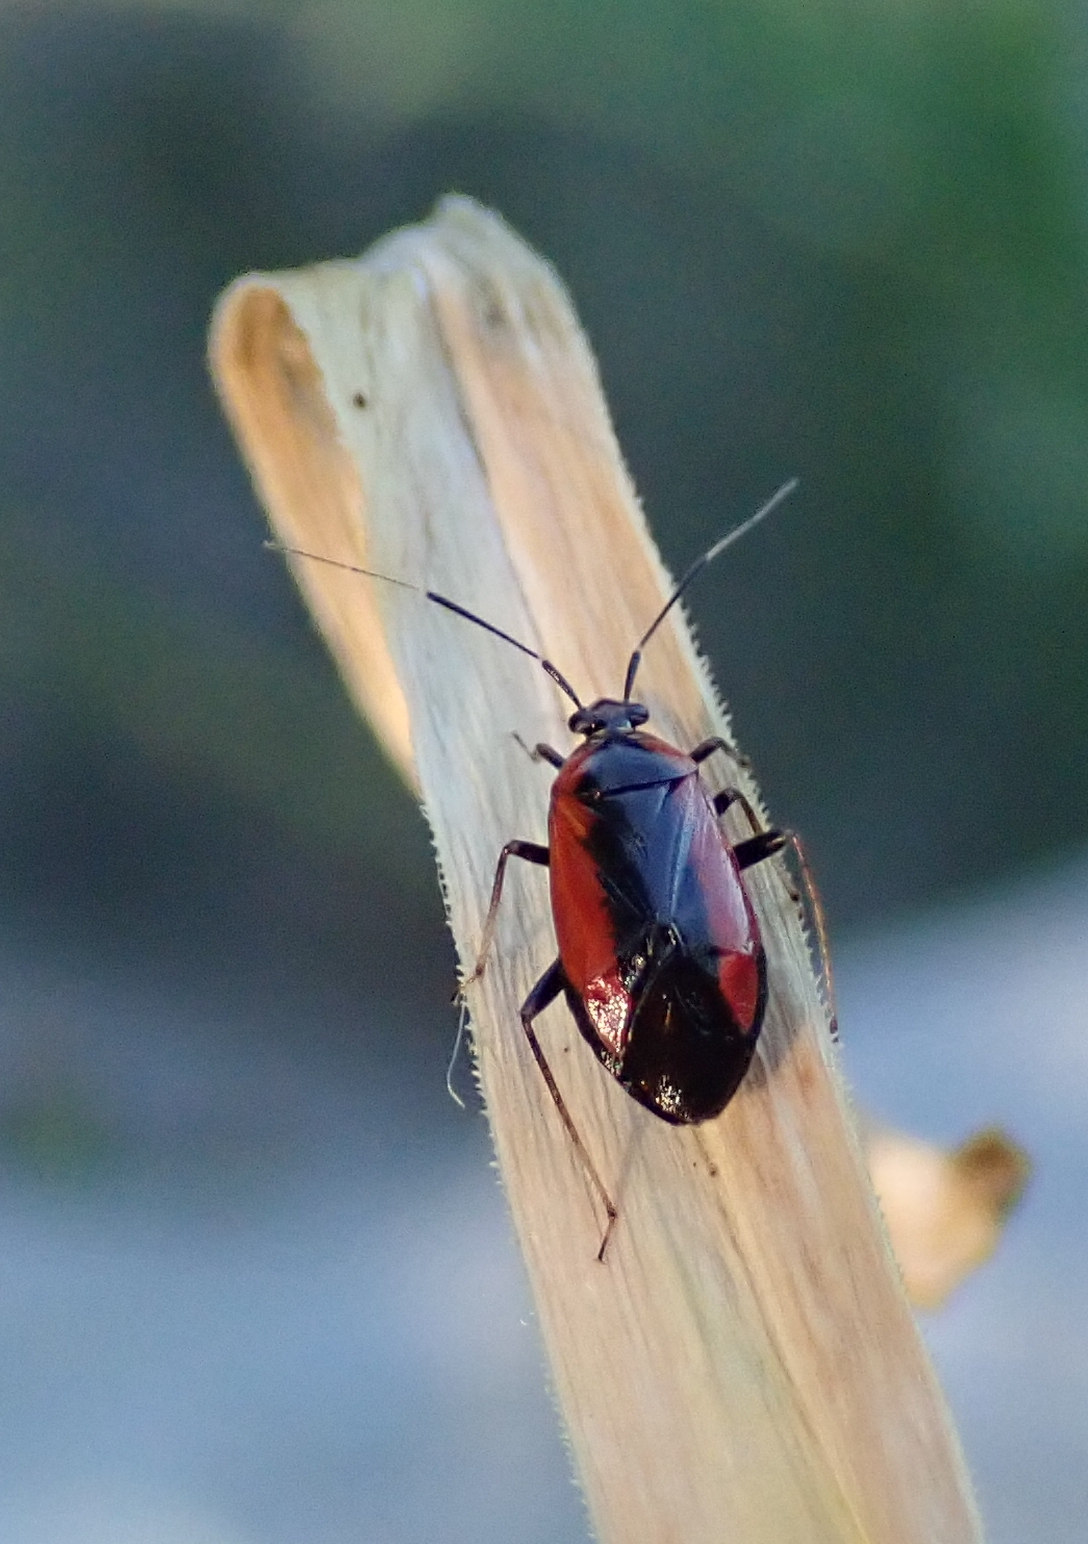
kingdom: Animalia
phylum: Arthropoda
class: Insecta
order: Hemiptera
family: Miridae
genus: Metriorrhynchomiris
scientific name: Metriorrhynchomiris dislocatus
